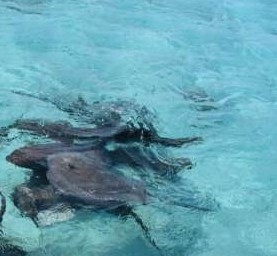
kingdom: Animalia
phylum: Chordata
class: Elasmobranchii
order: Myliobatiformes
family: Dasyatidae
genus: Hypanus
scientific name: Hypanus americanus
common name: Southern stingray
